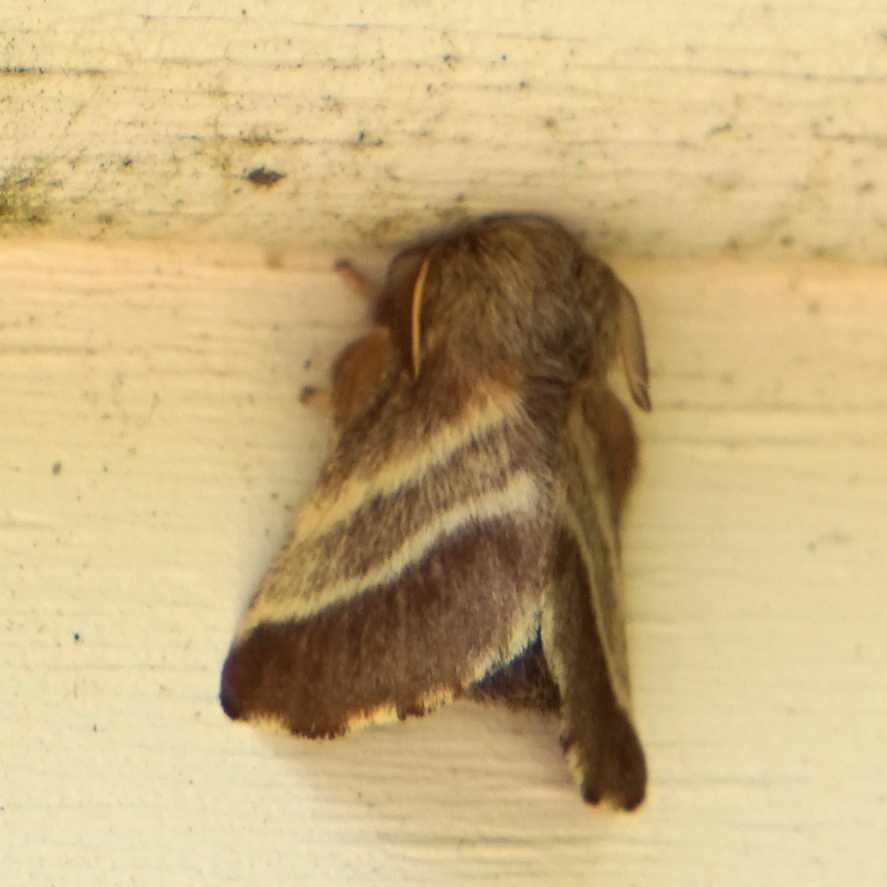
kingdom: Animalia
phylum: Arthropoda
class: Insecta
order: Lepidoptera
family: Lasiocampidae
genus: Malacosoma
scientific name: Malacosoma americana
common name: Eastern tent caterpillar moth
